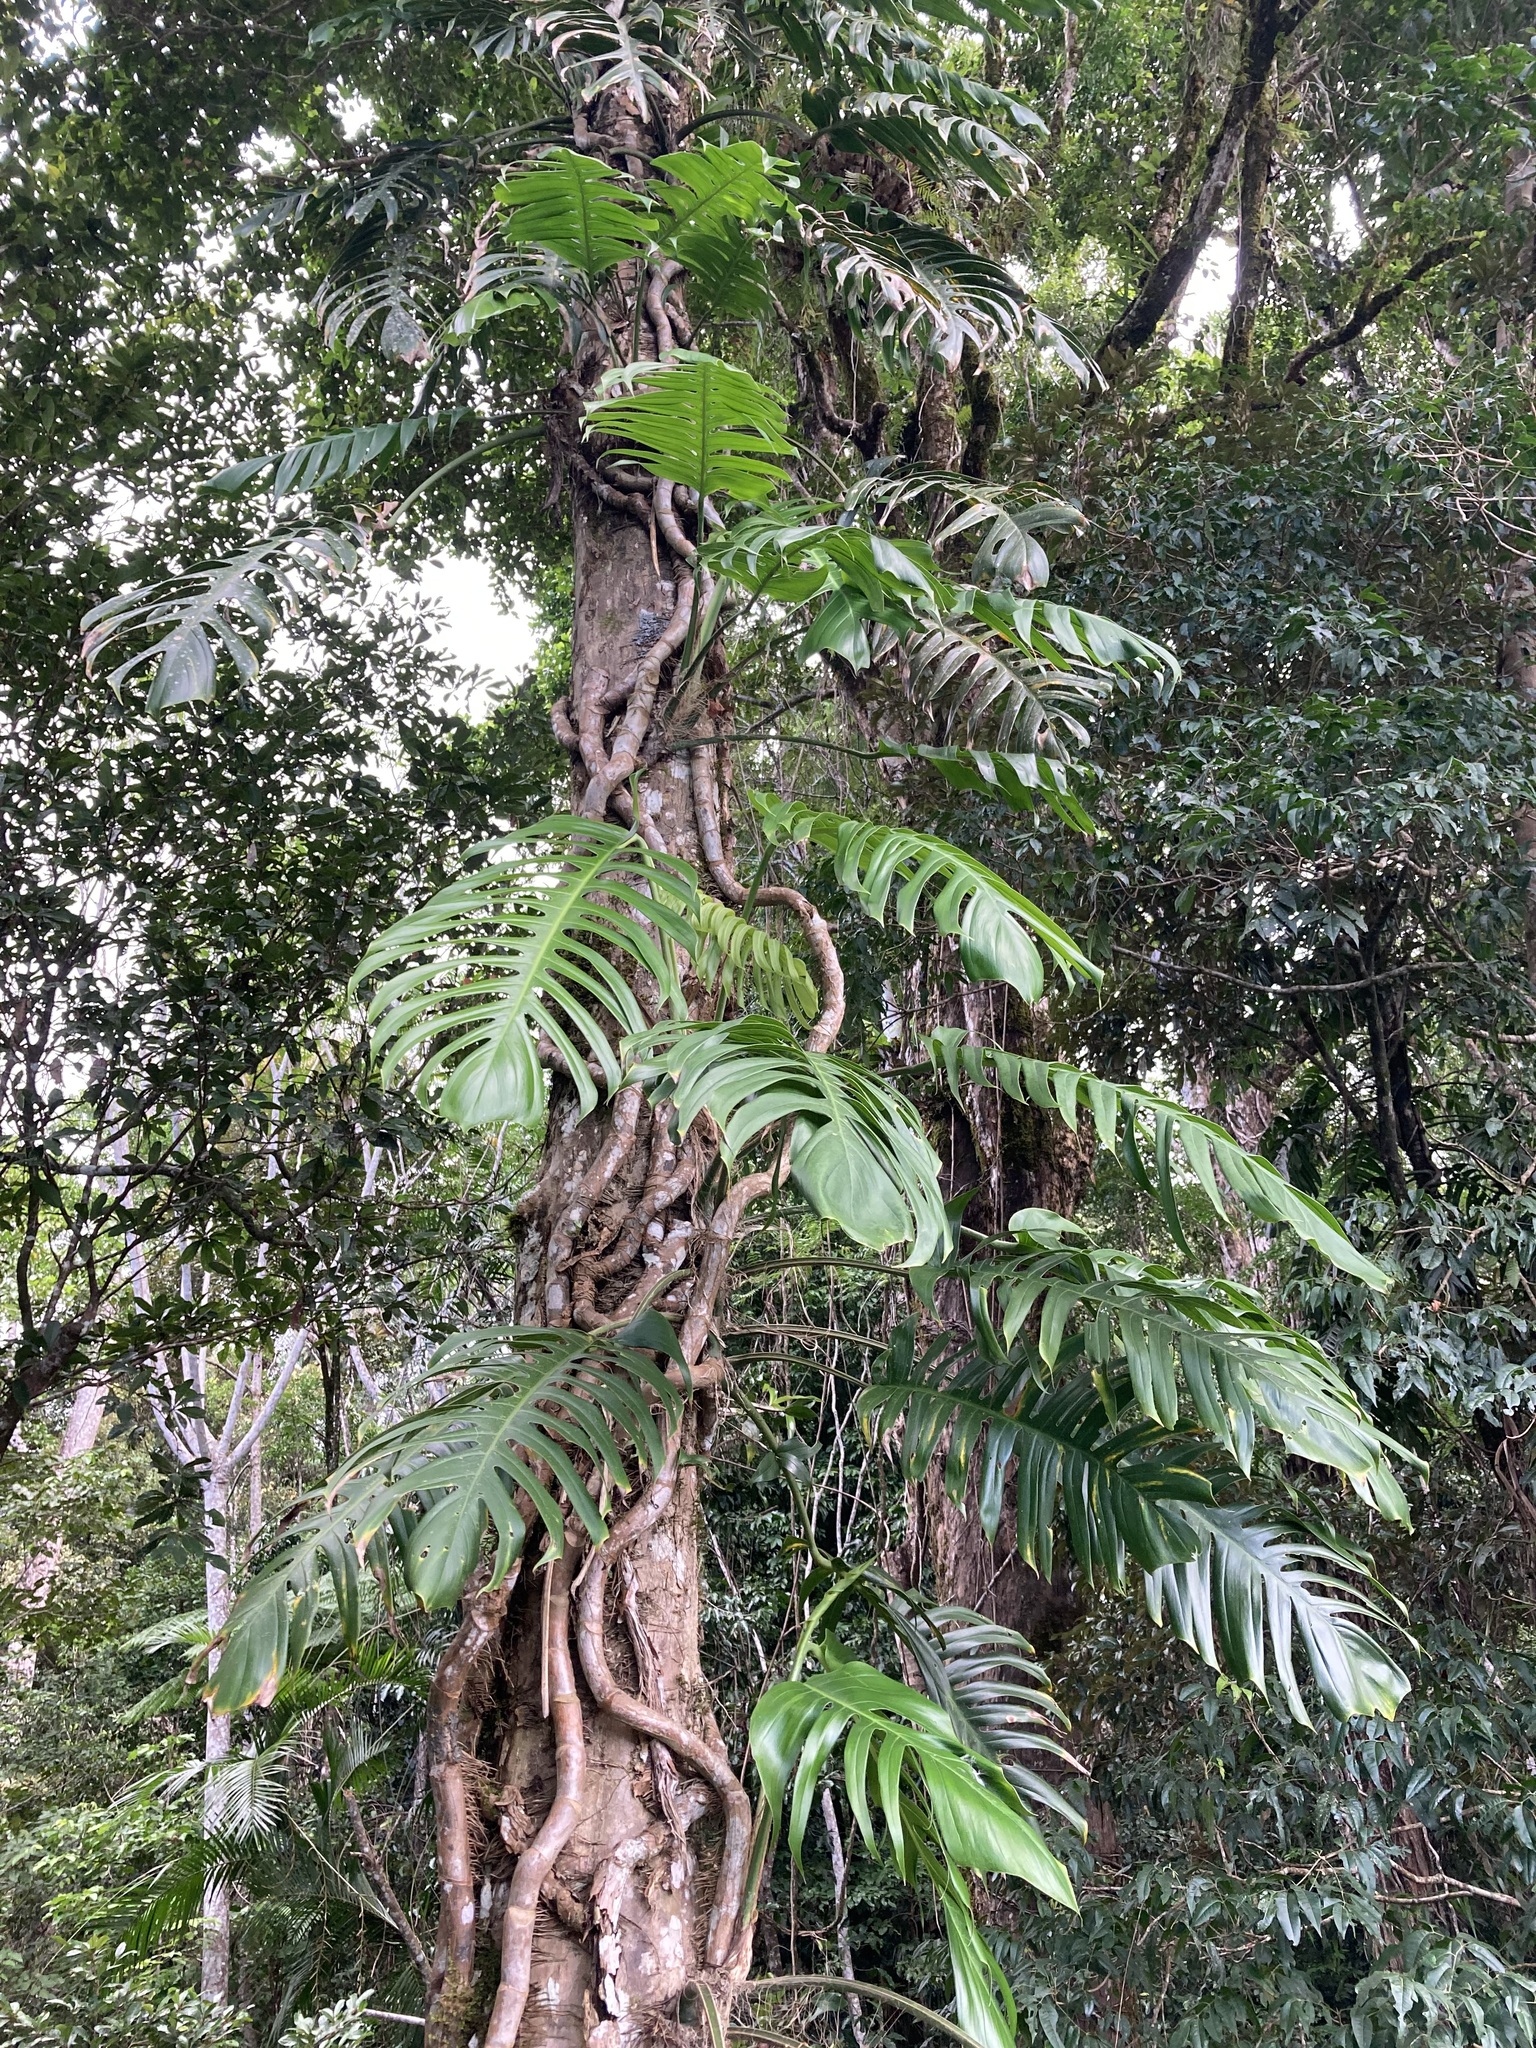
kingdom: Plantae
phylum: Tracheophyta
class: Liliopsida
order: Alismatales
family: Araceae
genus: Epipremnum
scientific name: Epipremnum pinnatum
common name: Centipede tongavine
